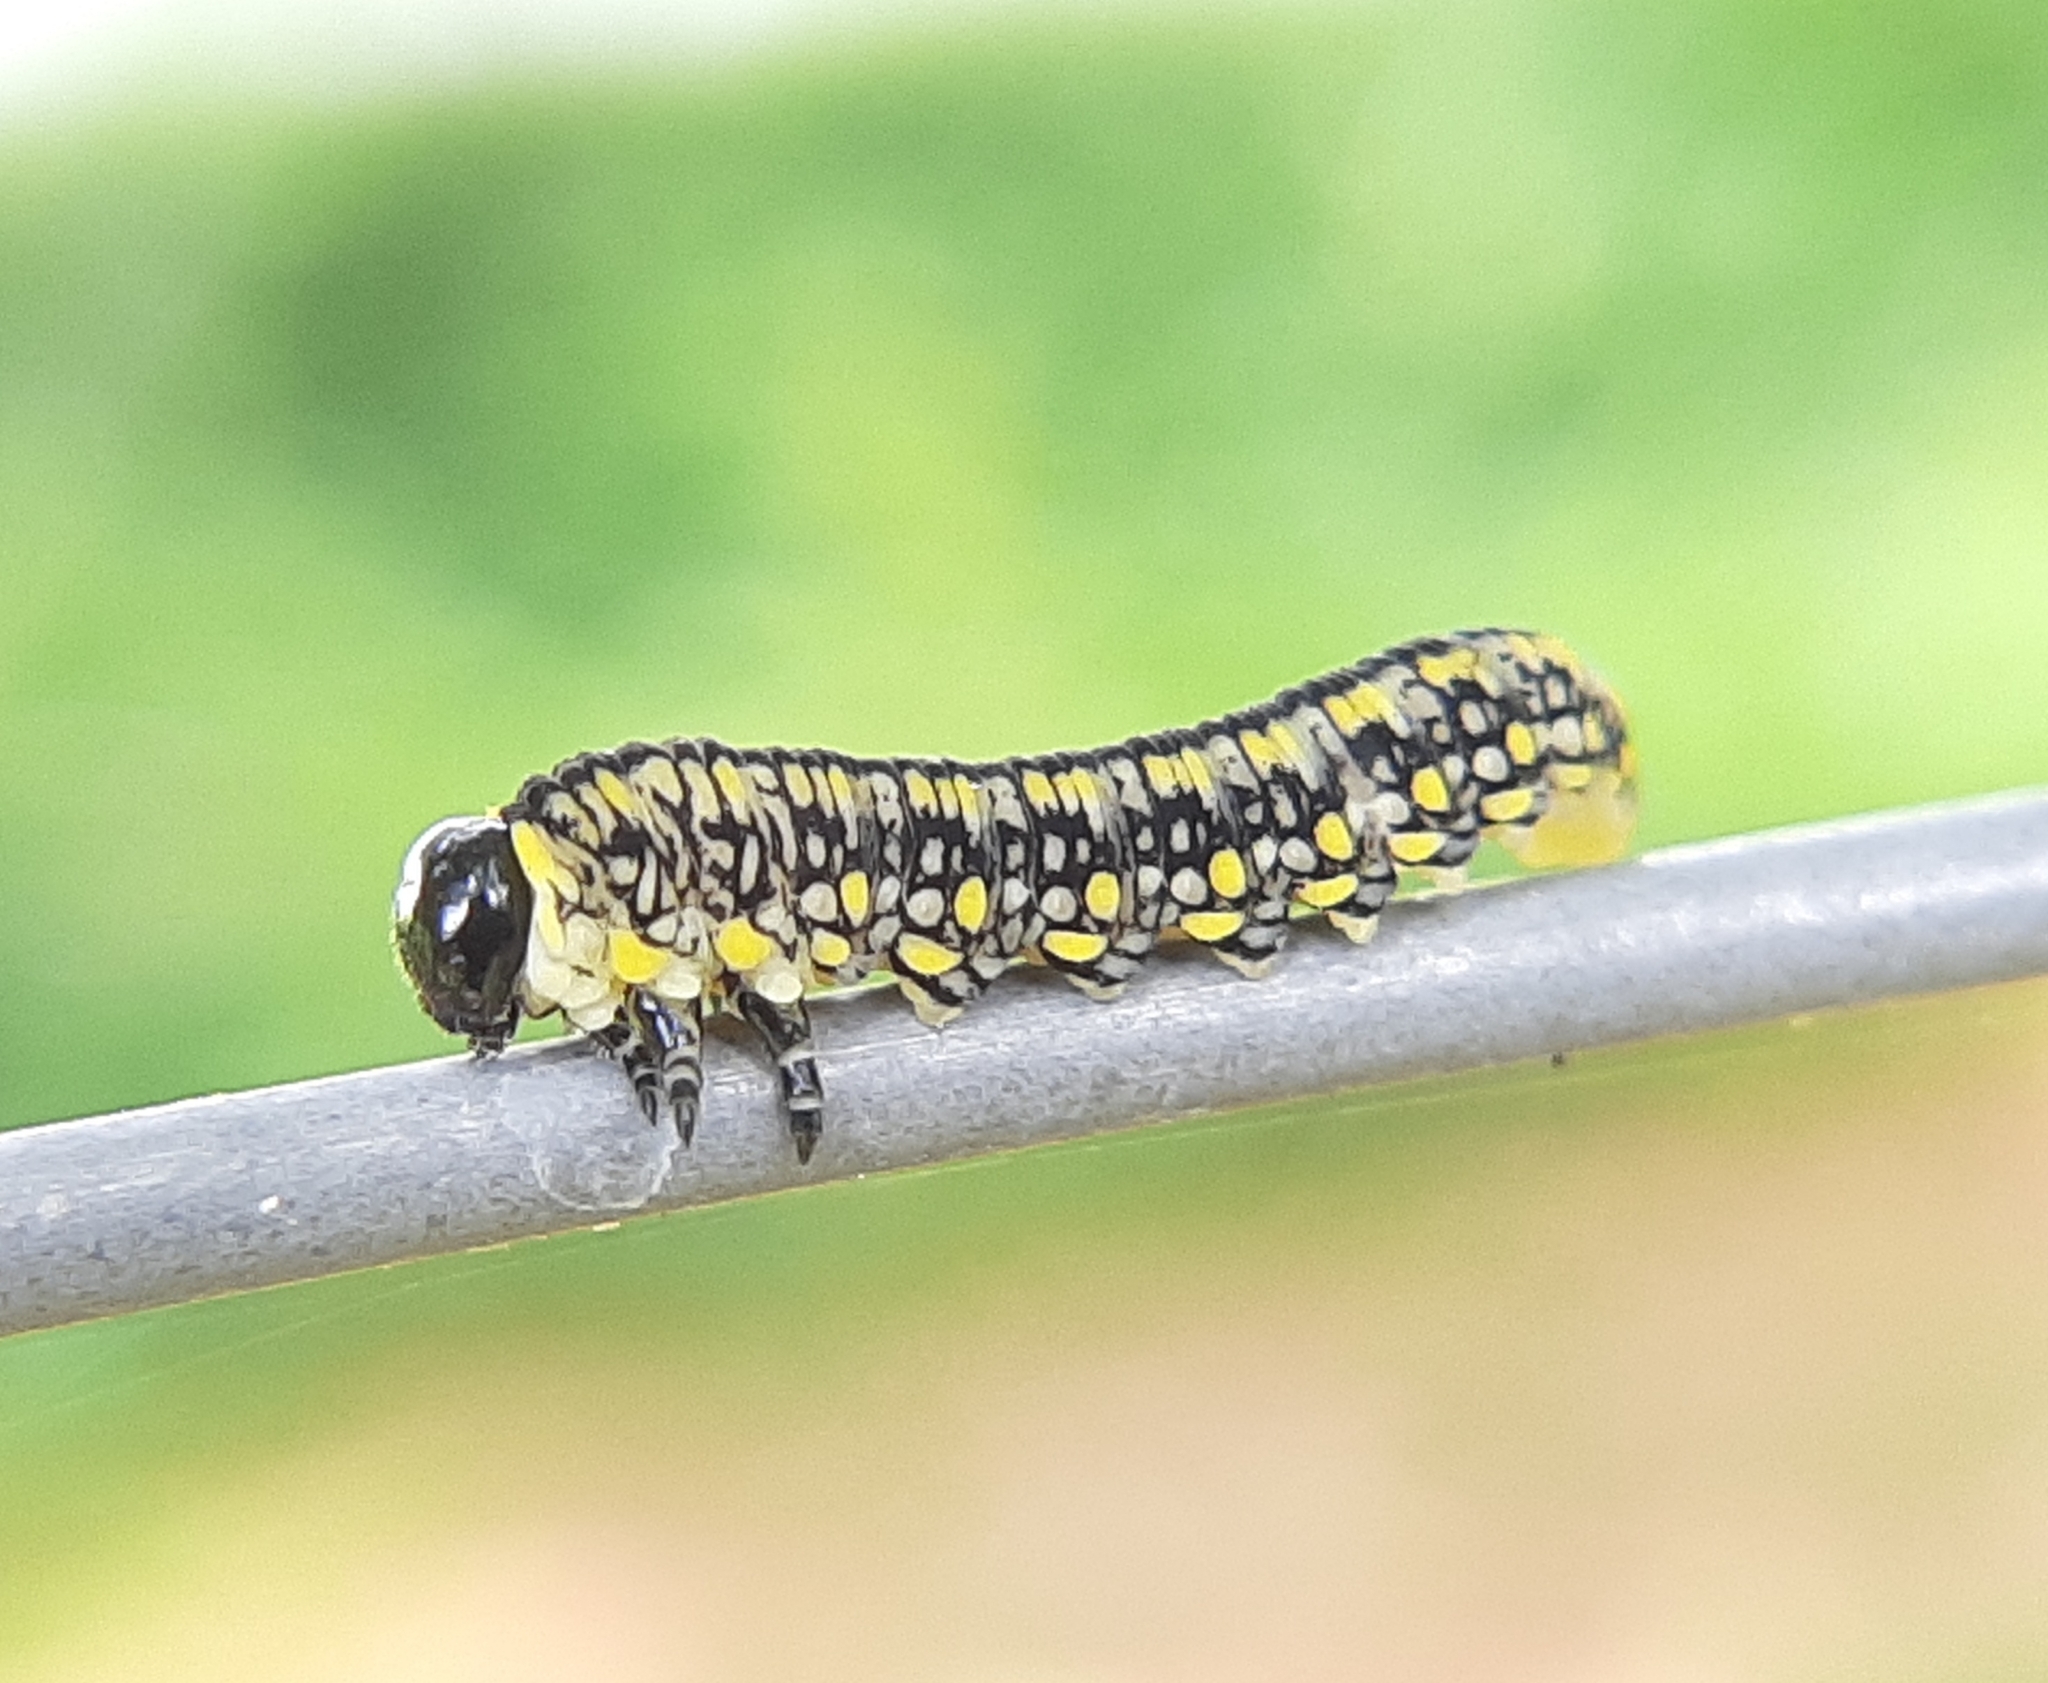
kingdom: Animalia
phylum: Arthropoda
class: Insecta
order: Hymenoptera
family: Diprionidae
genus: Diprion
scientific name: Diprion similis
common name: Pine sawfly
